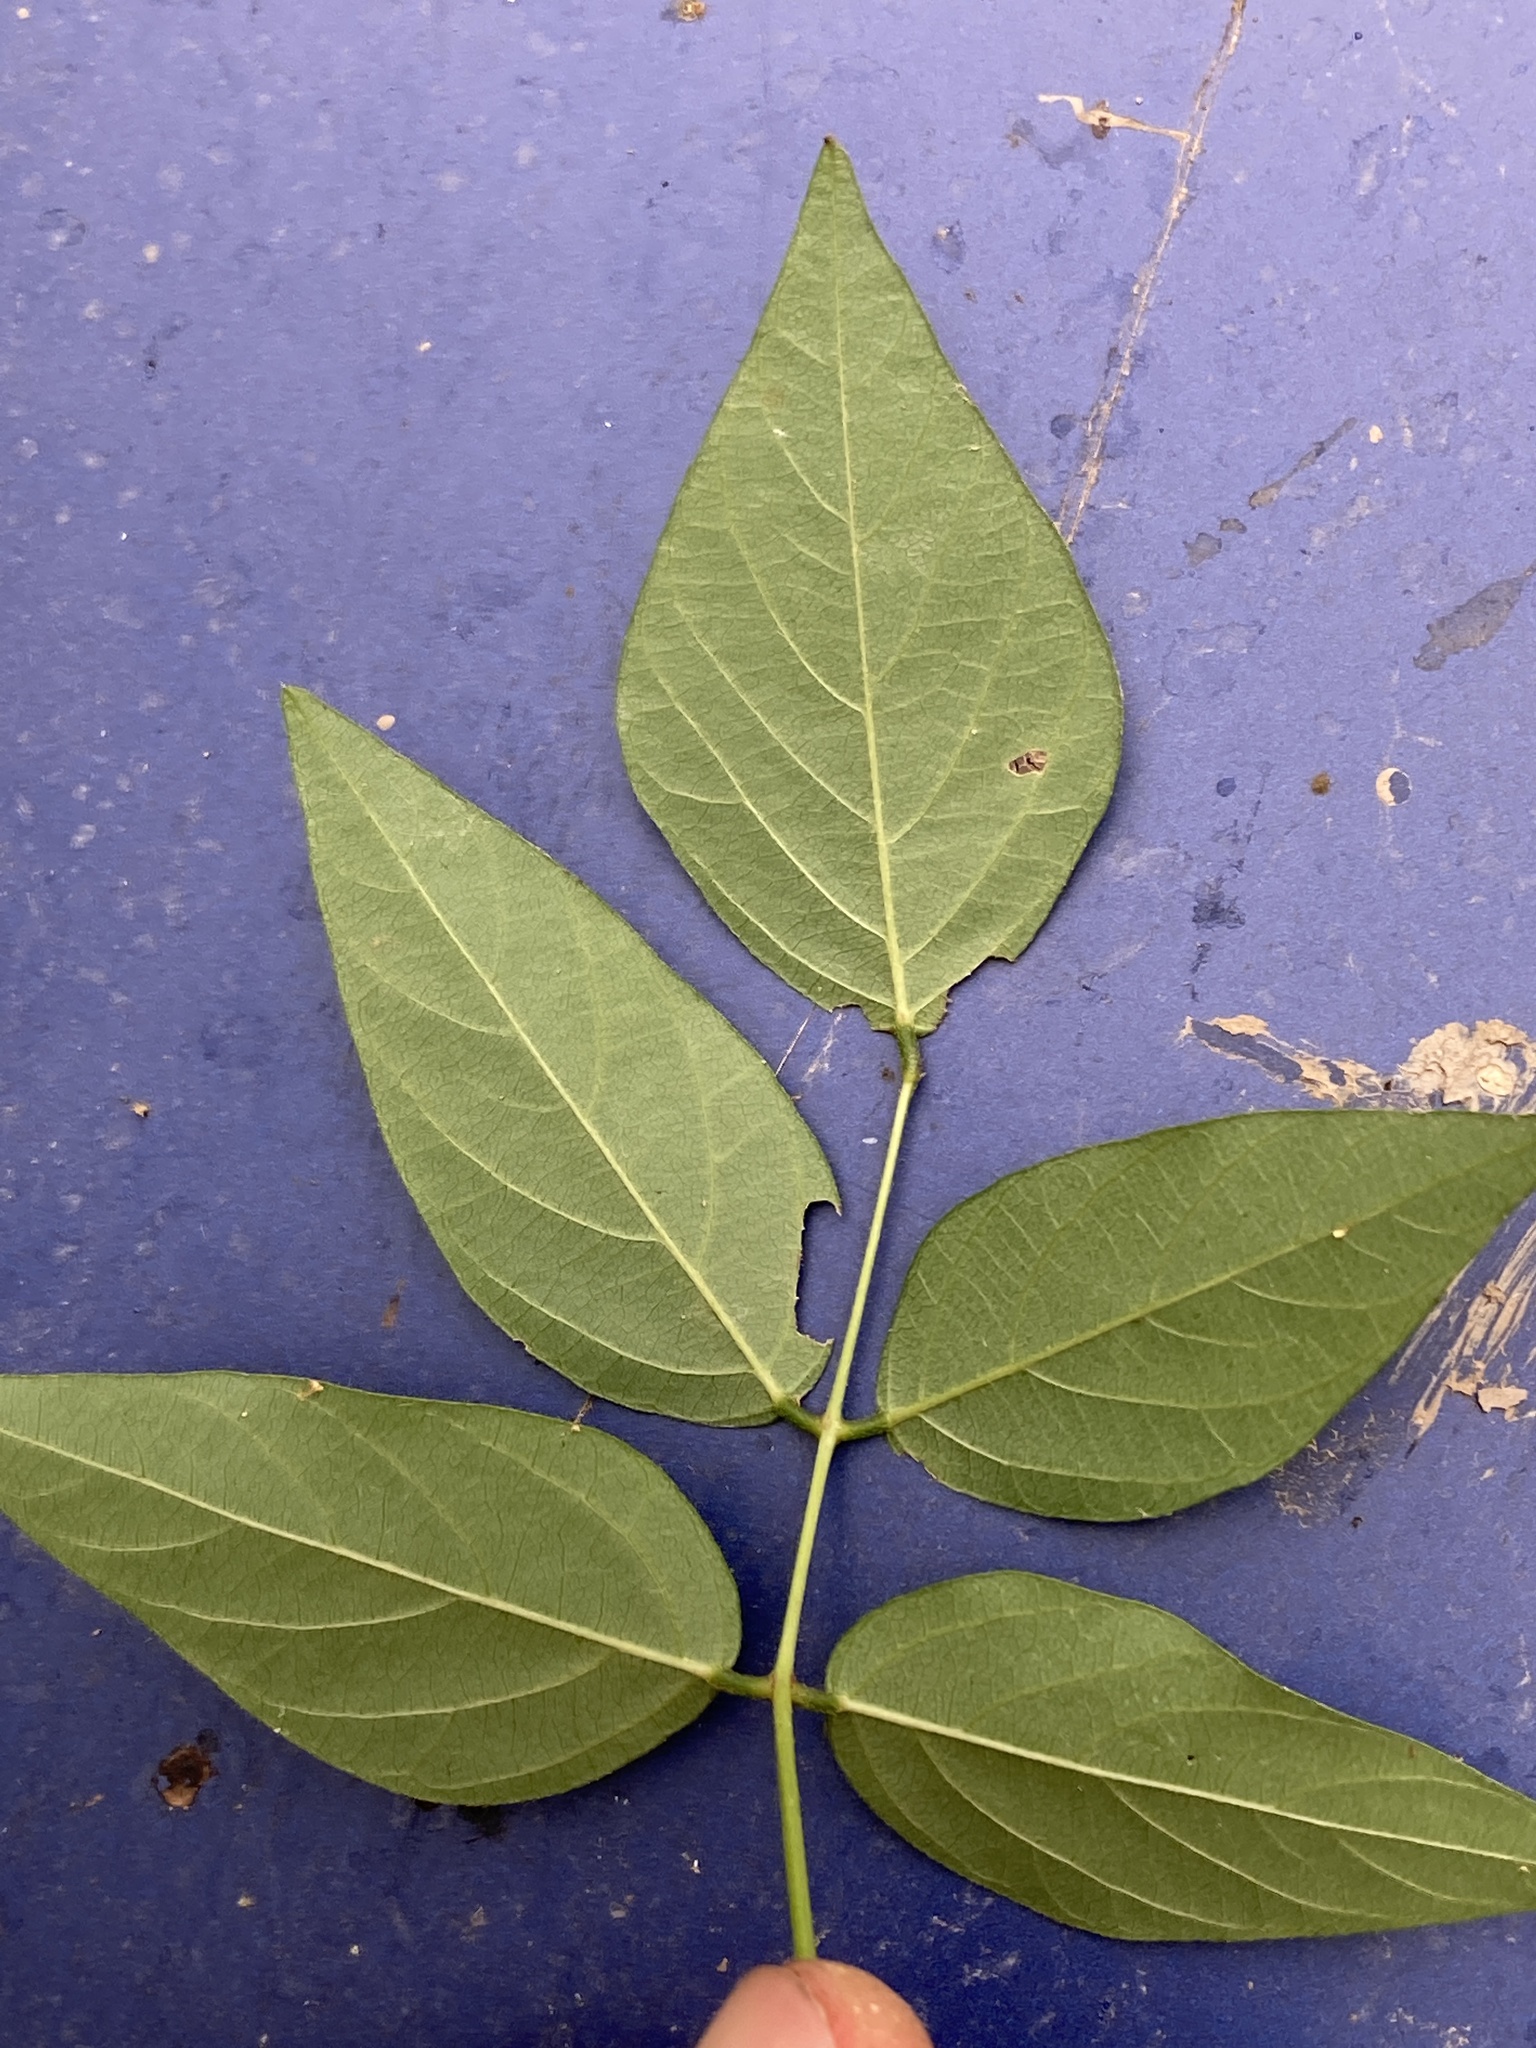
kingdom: Plantae
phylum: Tracheophyta
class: Magnoliopsida
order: Fabales
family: Fabaceae
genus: Apios
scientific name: Apios americana
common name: American potato-bean
